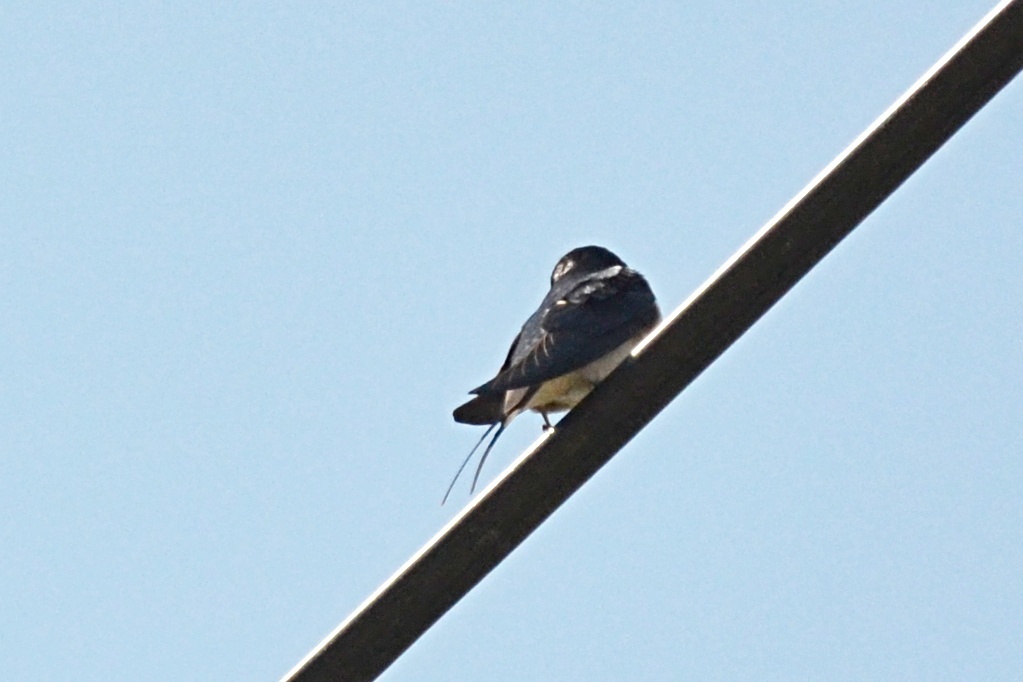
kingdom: Animalia
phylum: Chordata
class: Aves
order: Passeriformes
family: Hirundinidae
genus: Hirundo
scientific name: Hirundo rustica
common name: Barn swallow
